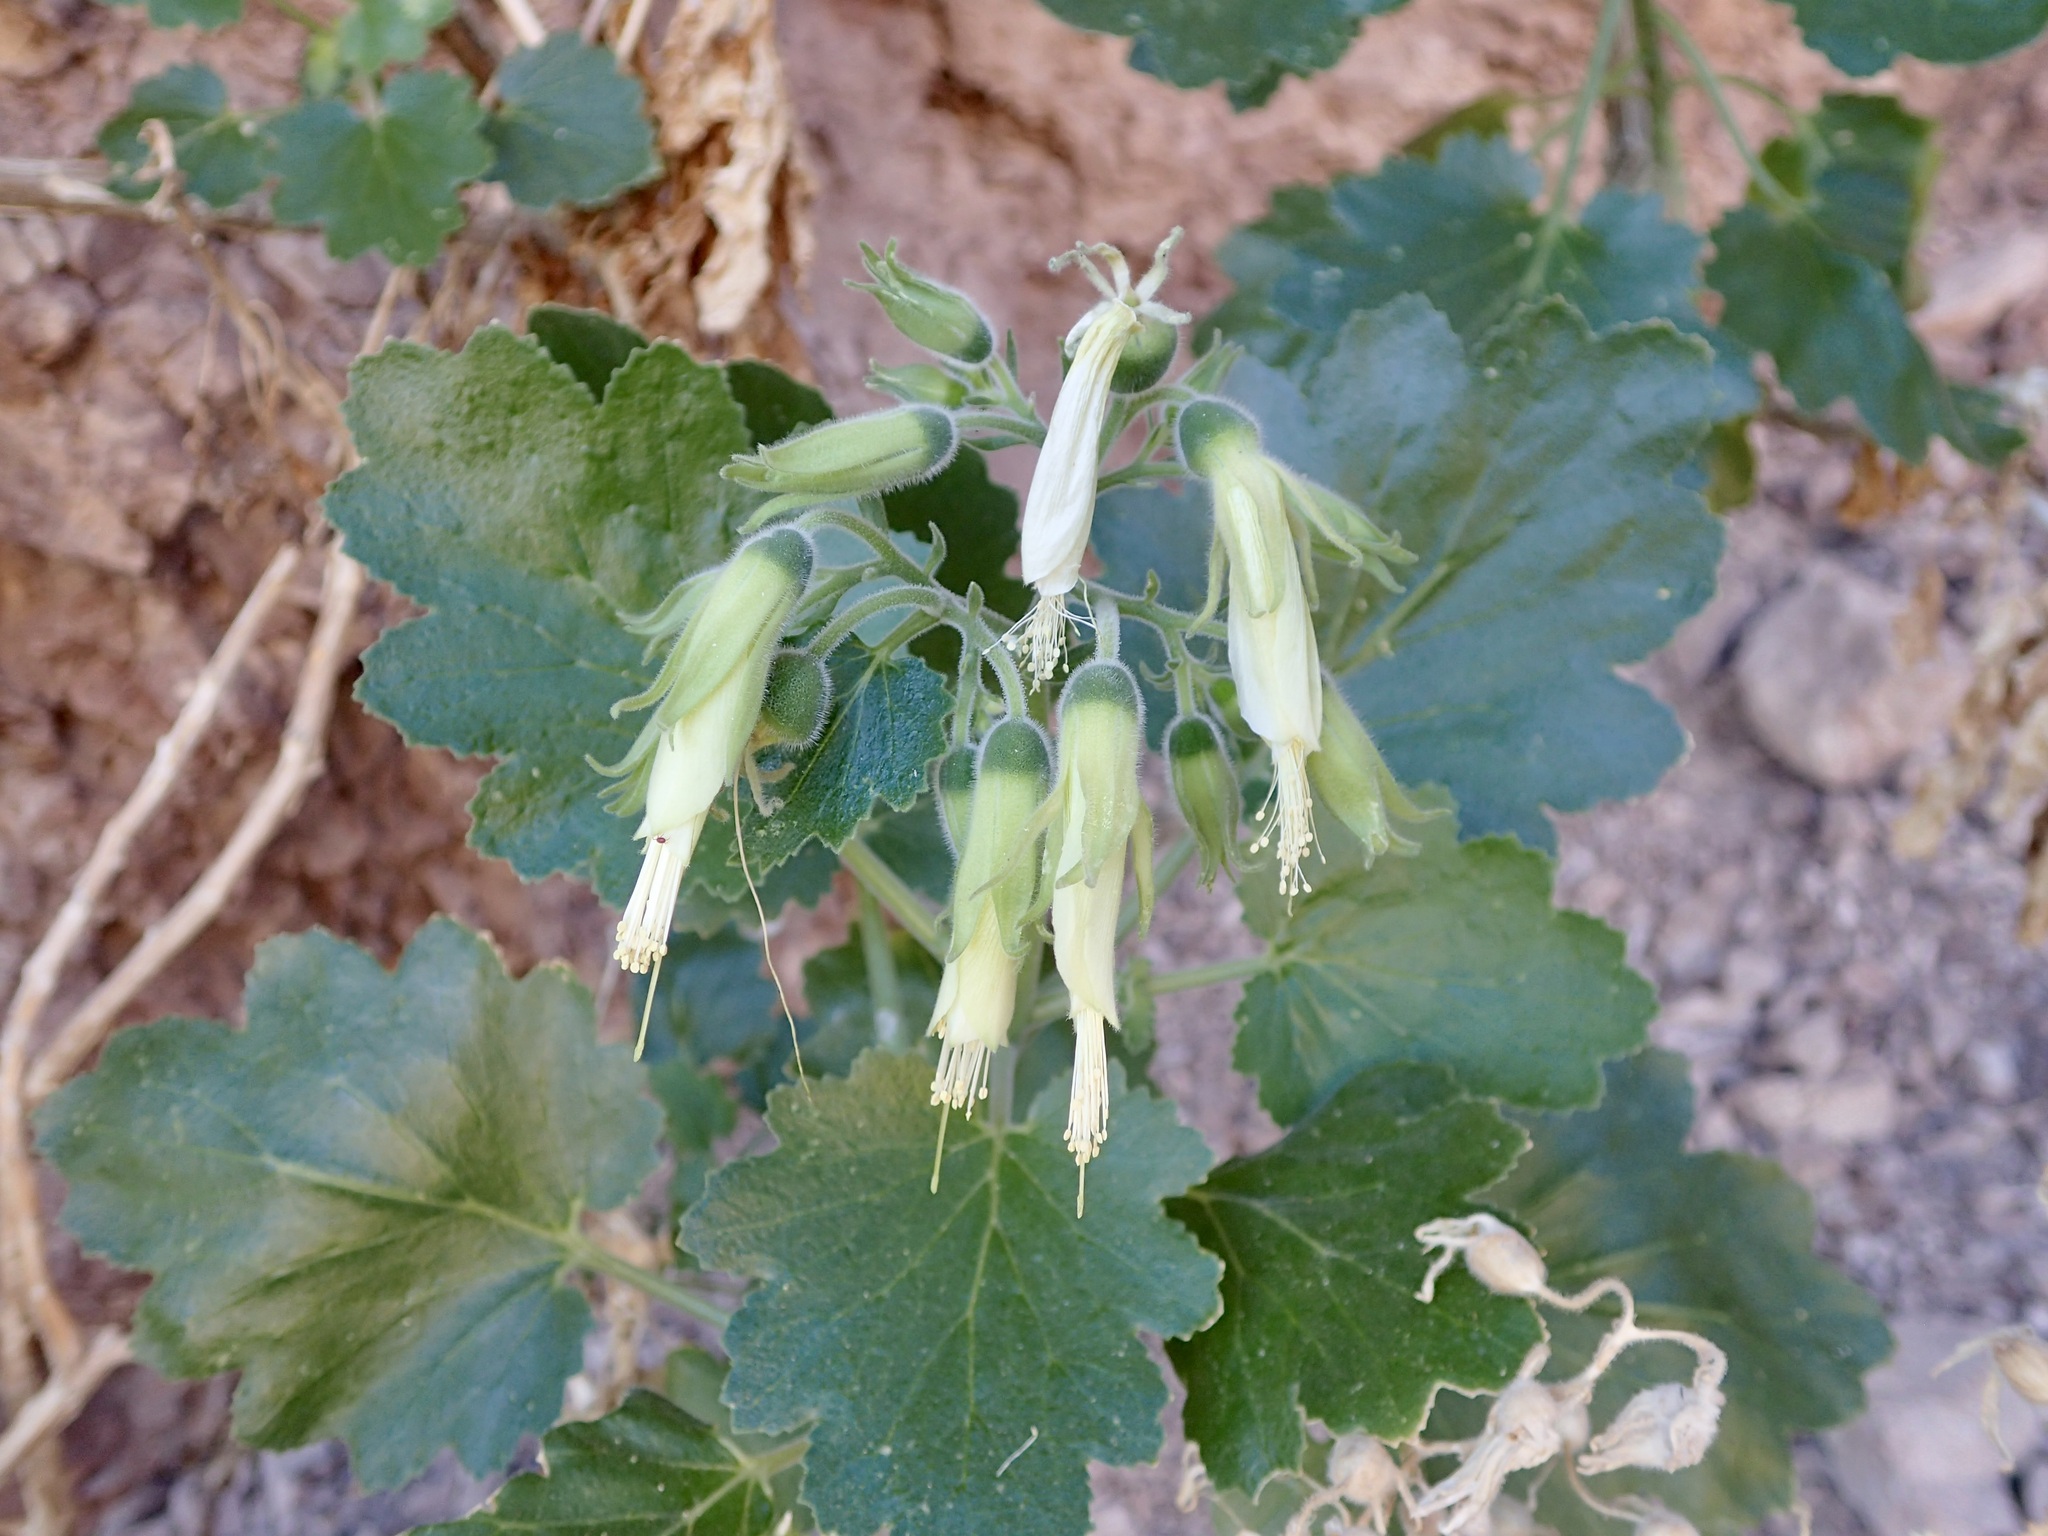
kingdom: Plantae
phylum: Tracheophyta
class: Magnoliopsida
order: Cornales
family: Loasaceae
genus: Eucnide
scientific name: Eucnide cordata
